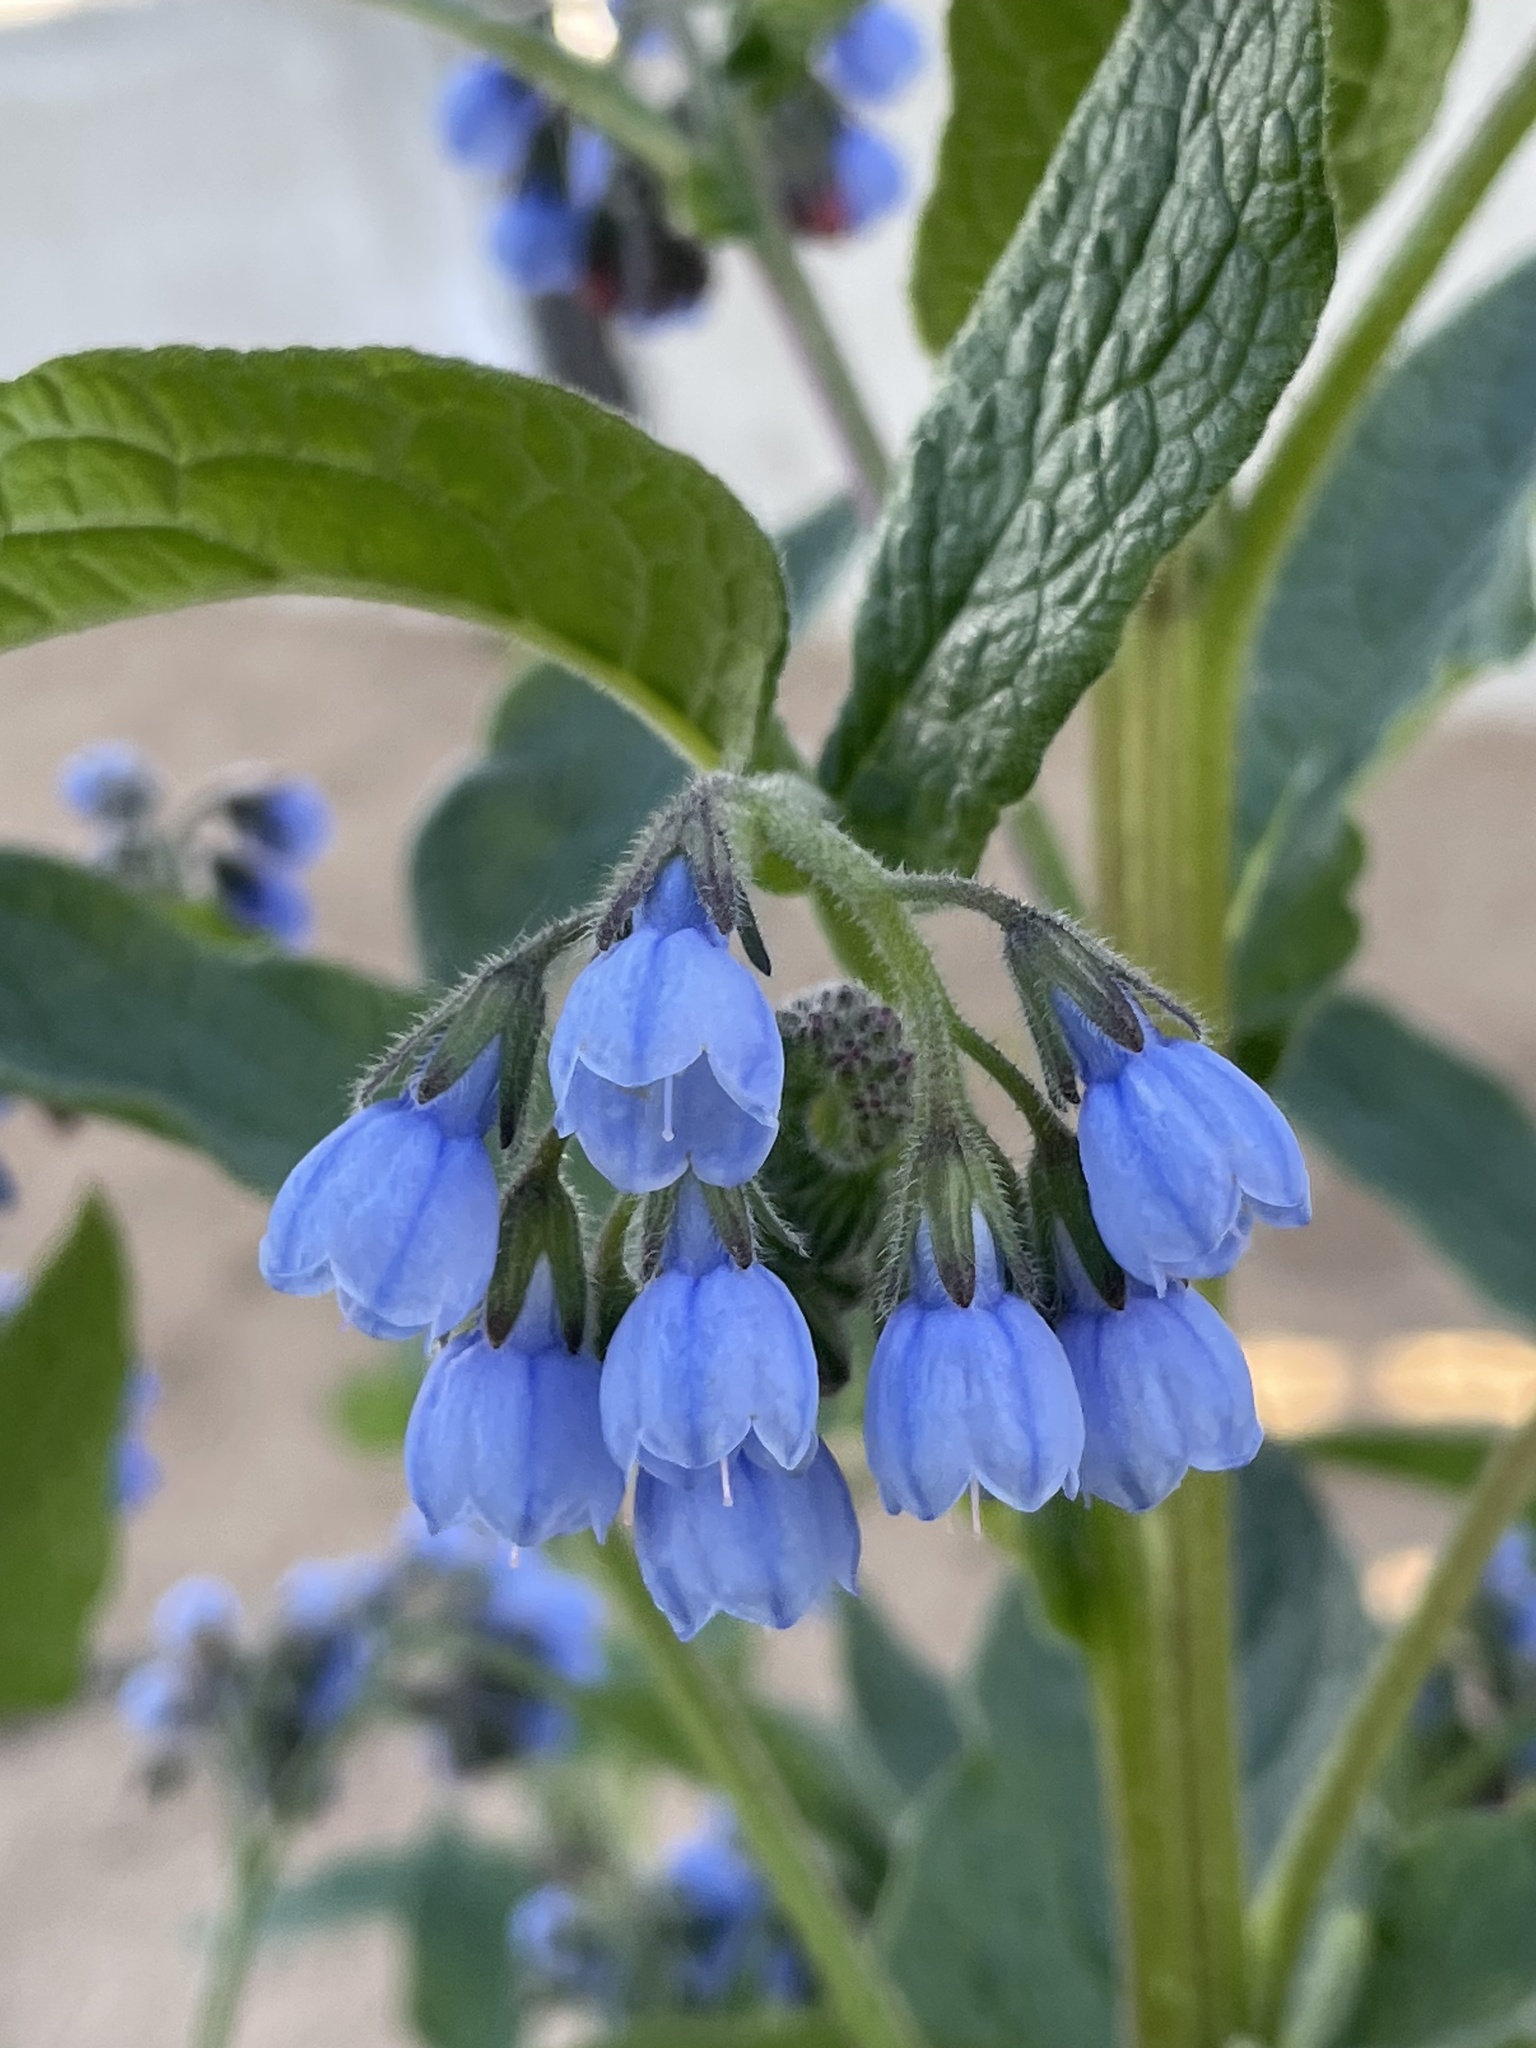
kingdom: Plantae
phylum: Tracheophyta
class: Magnoliopsida
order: Boraginales
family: Boraginaceae
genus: Symphytum
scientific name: Symphytum caucasicum
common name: Caucasian comfrey
